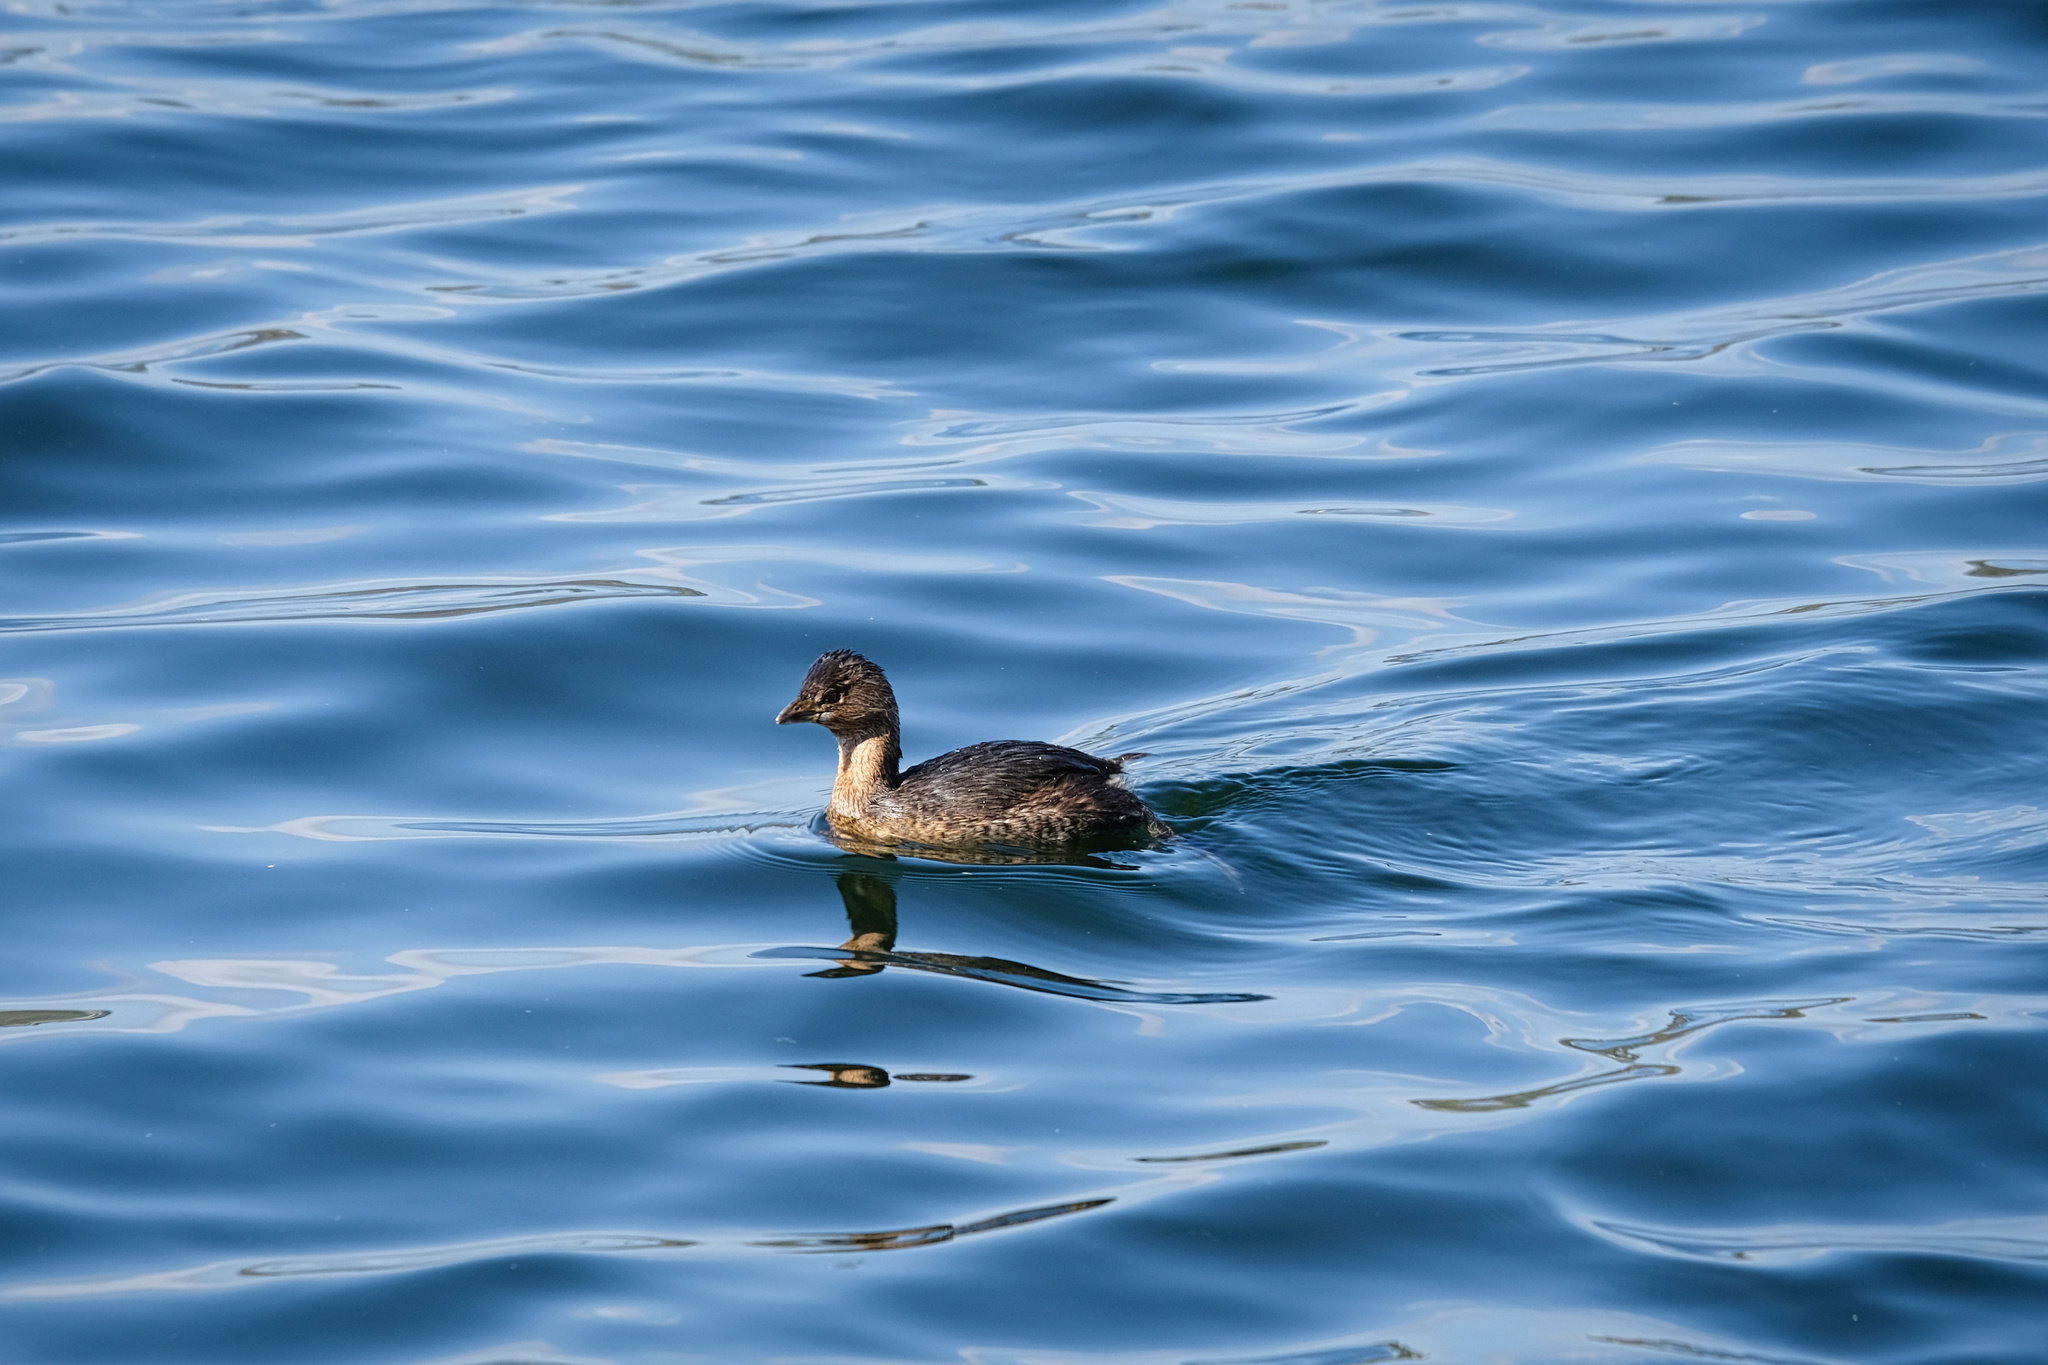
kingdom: Animalia
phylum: Chordata
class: Aves
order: Podicipediformes
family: Podicipedidae
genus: Podilymbus
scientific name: Podilymbus podiceps
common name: Pied-billed grebe
